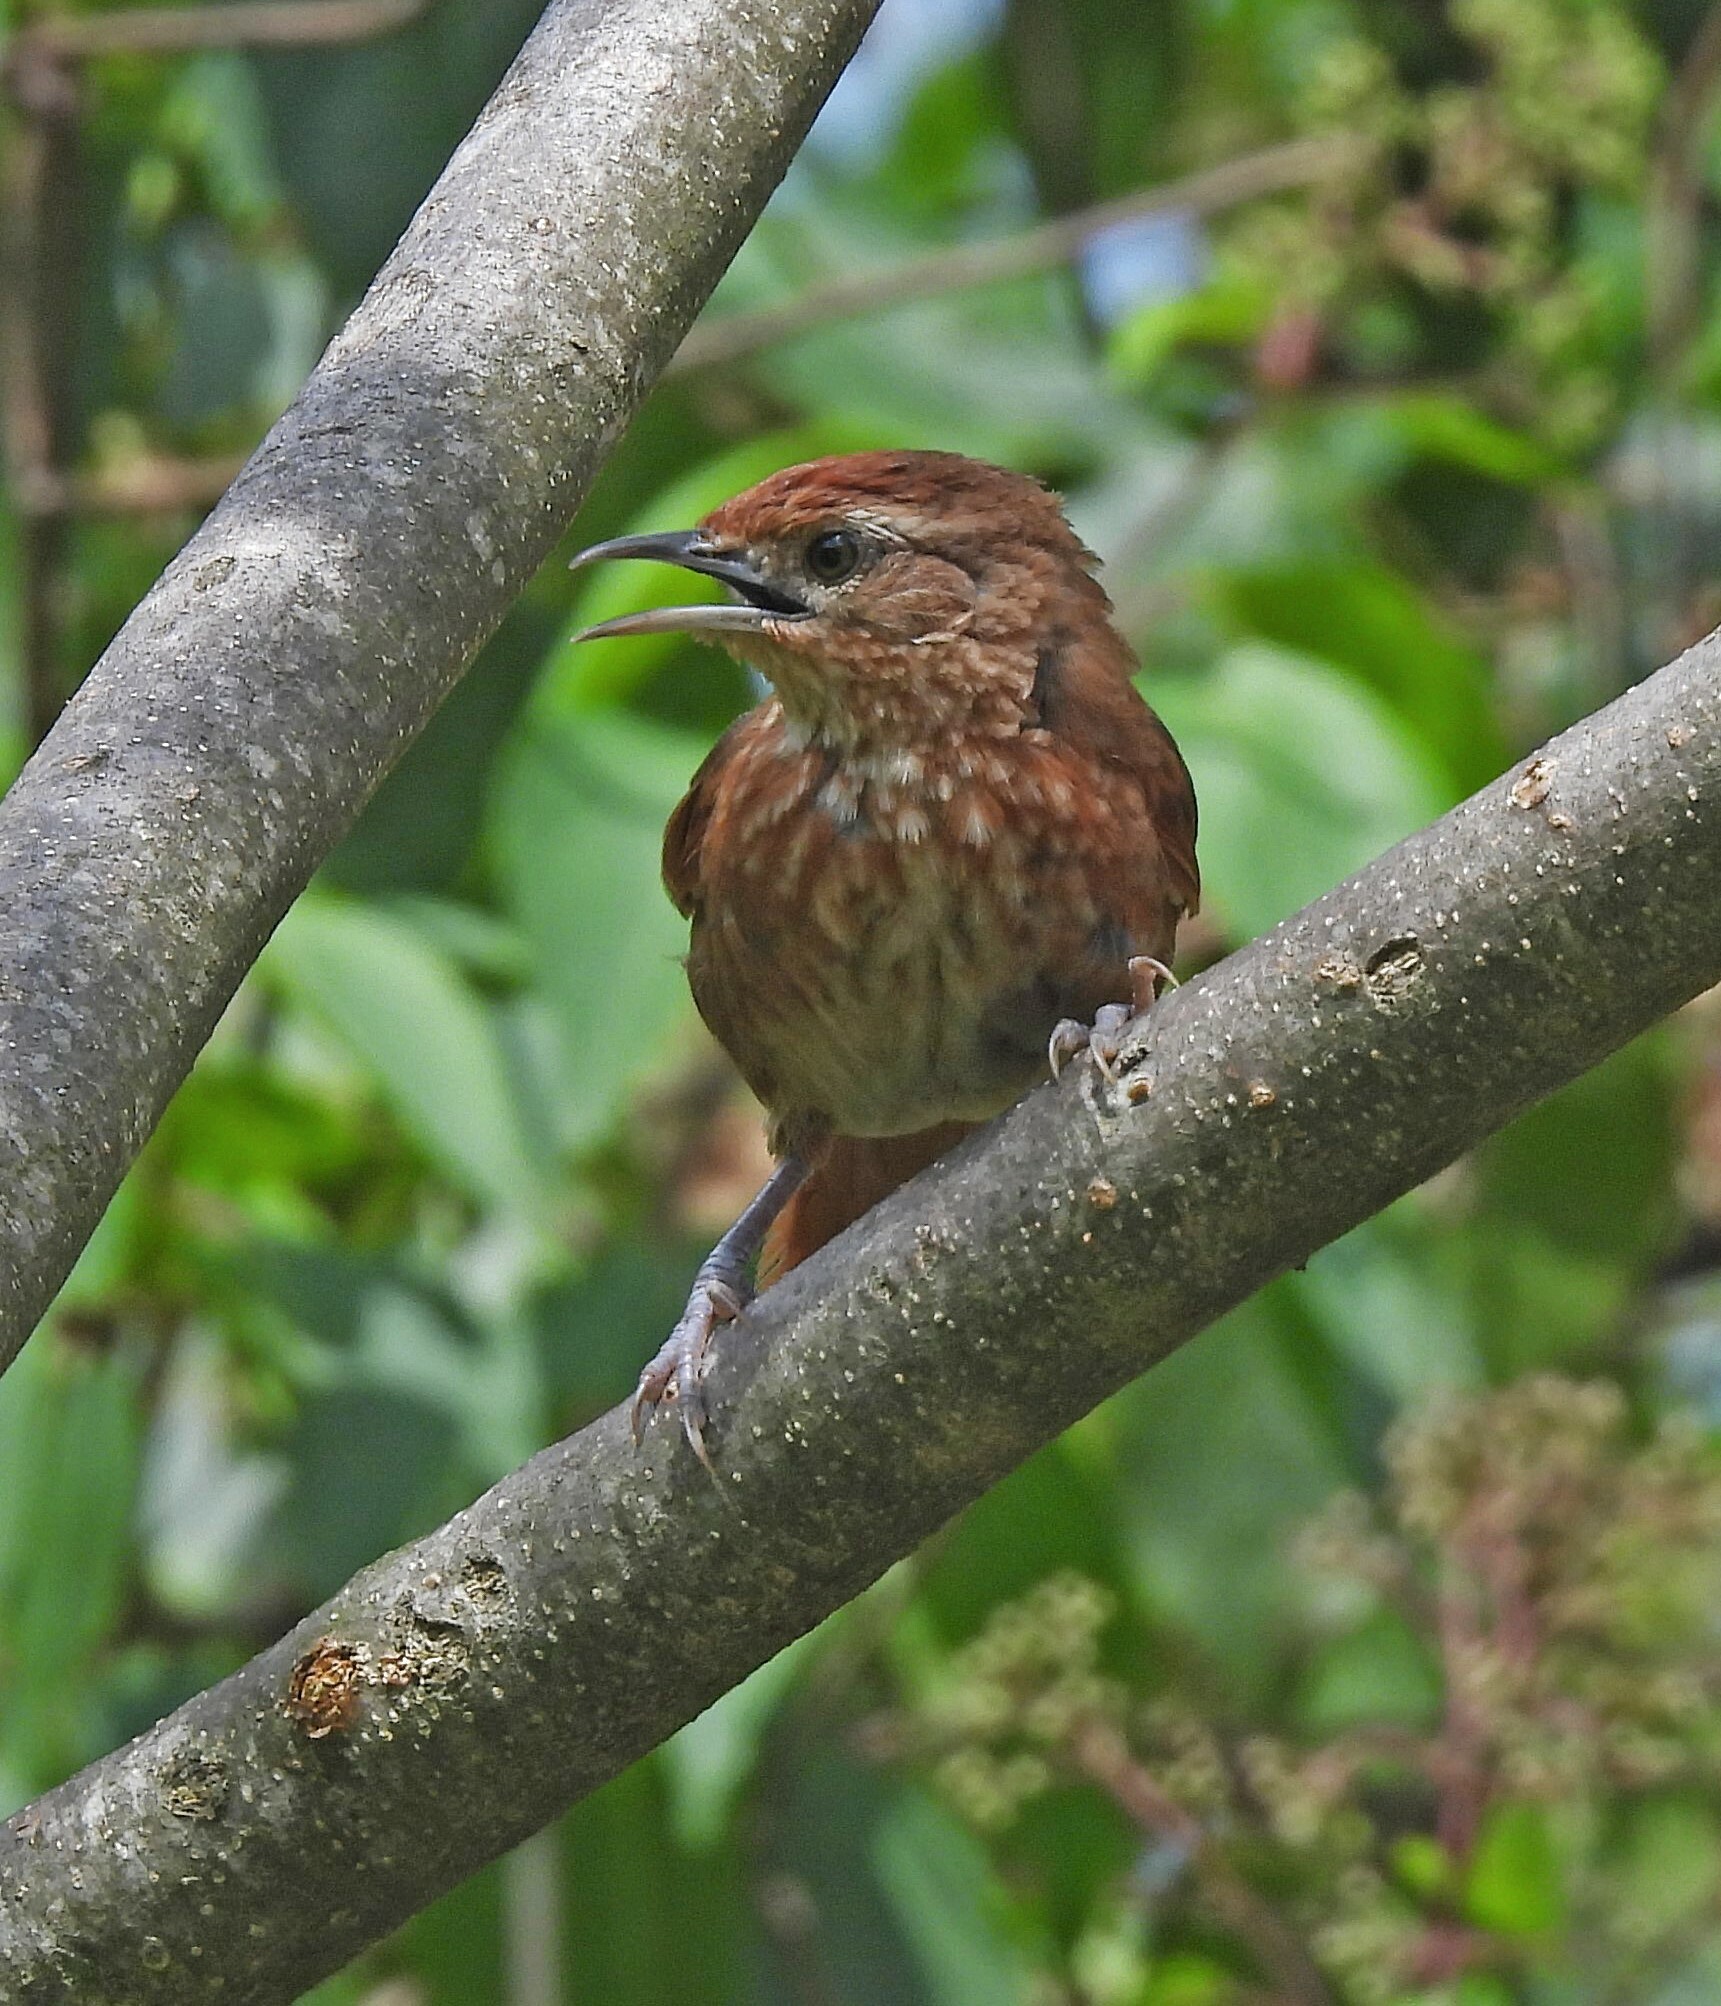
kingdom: Animalia
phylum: Chordata
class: Aves
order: Passeriformes
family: Furnariidae
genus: Phacellodomus
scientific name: Phacellodomus maculipectus
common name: Spot-breasted thornbird
